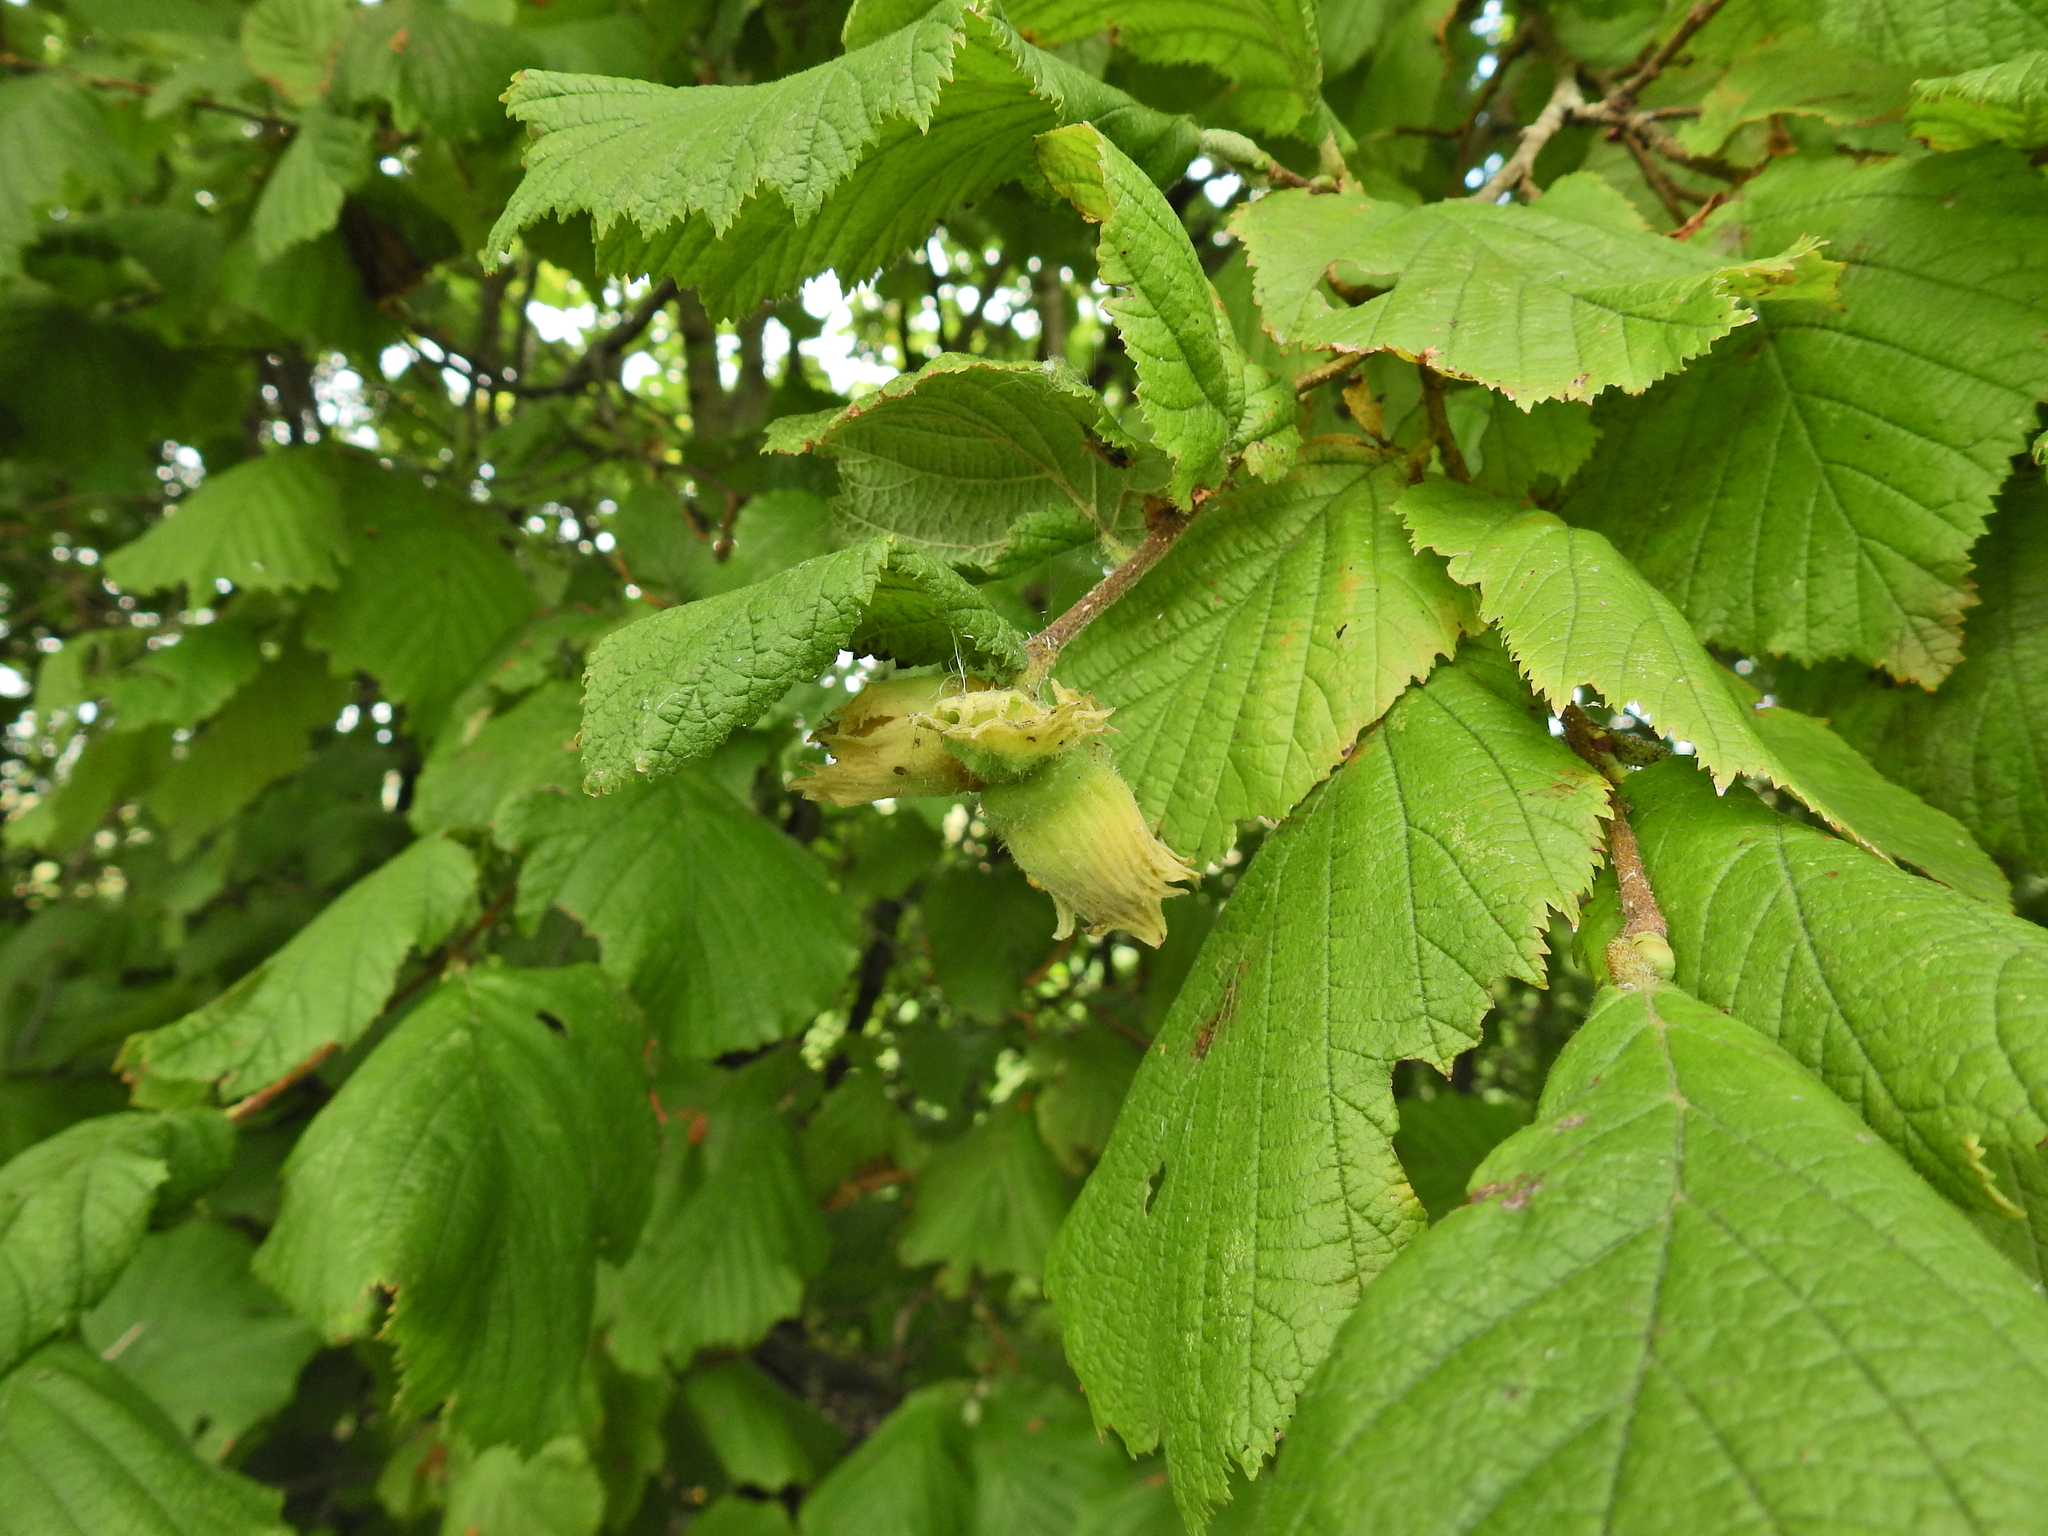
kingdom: Plantae
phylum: Tracheophyta
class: Magnoliopsida
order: Fagales
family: Betulaceae
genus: Corylus
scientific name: Corylus avellana
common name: European hazel
